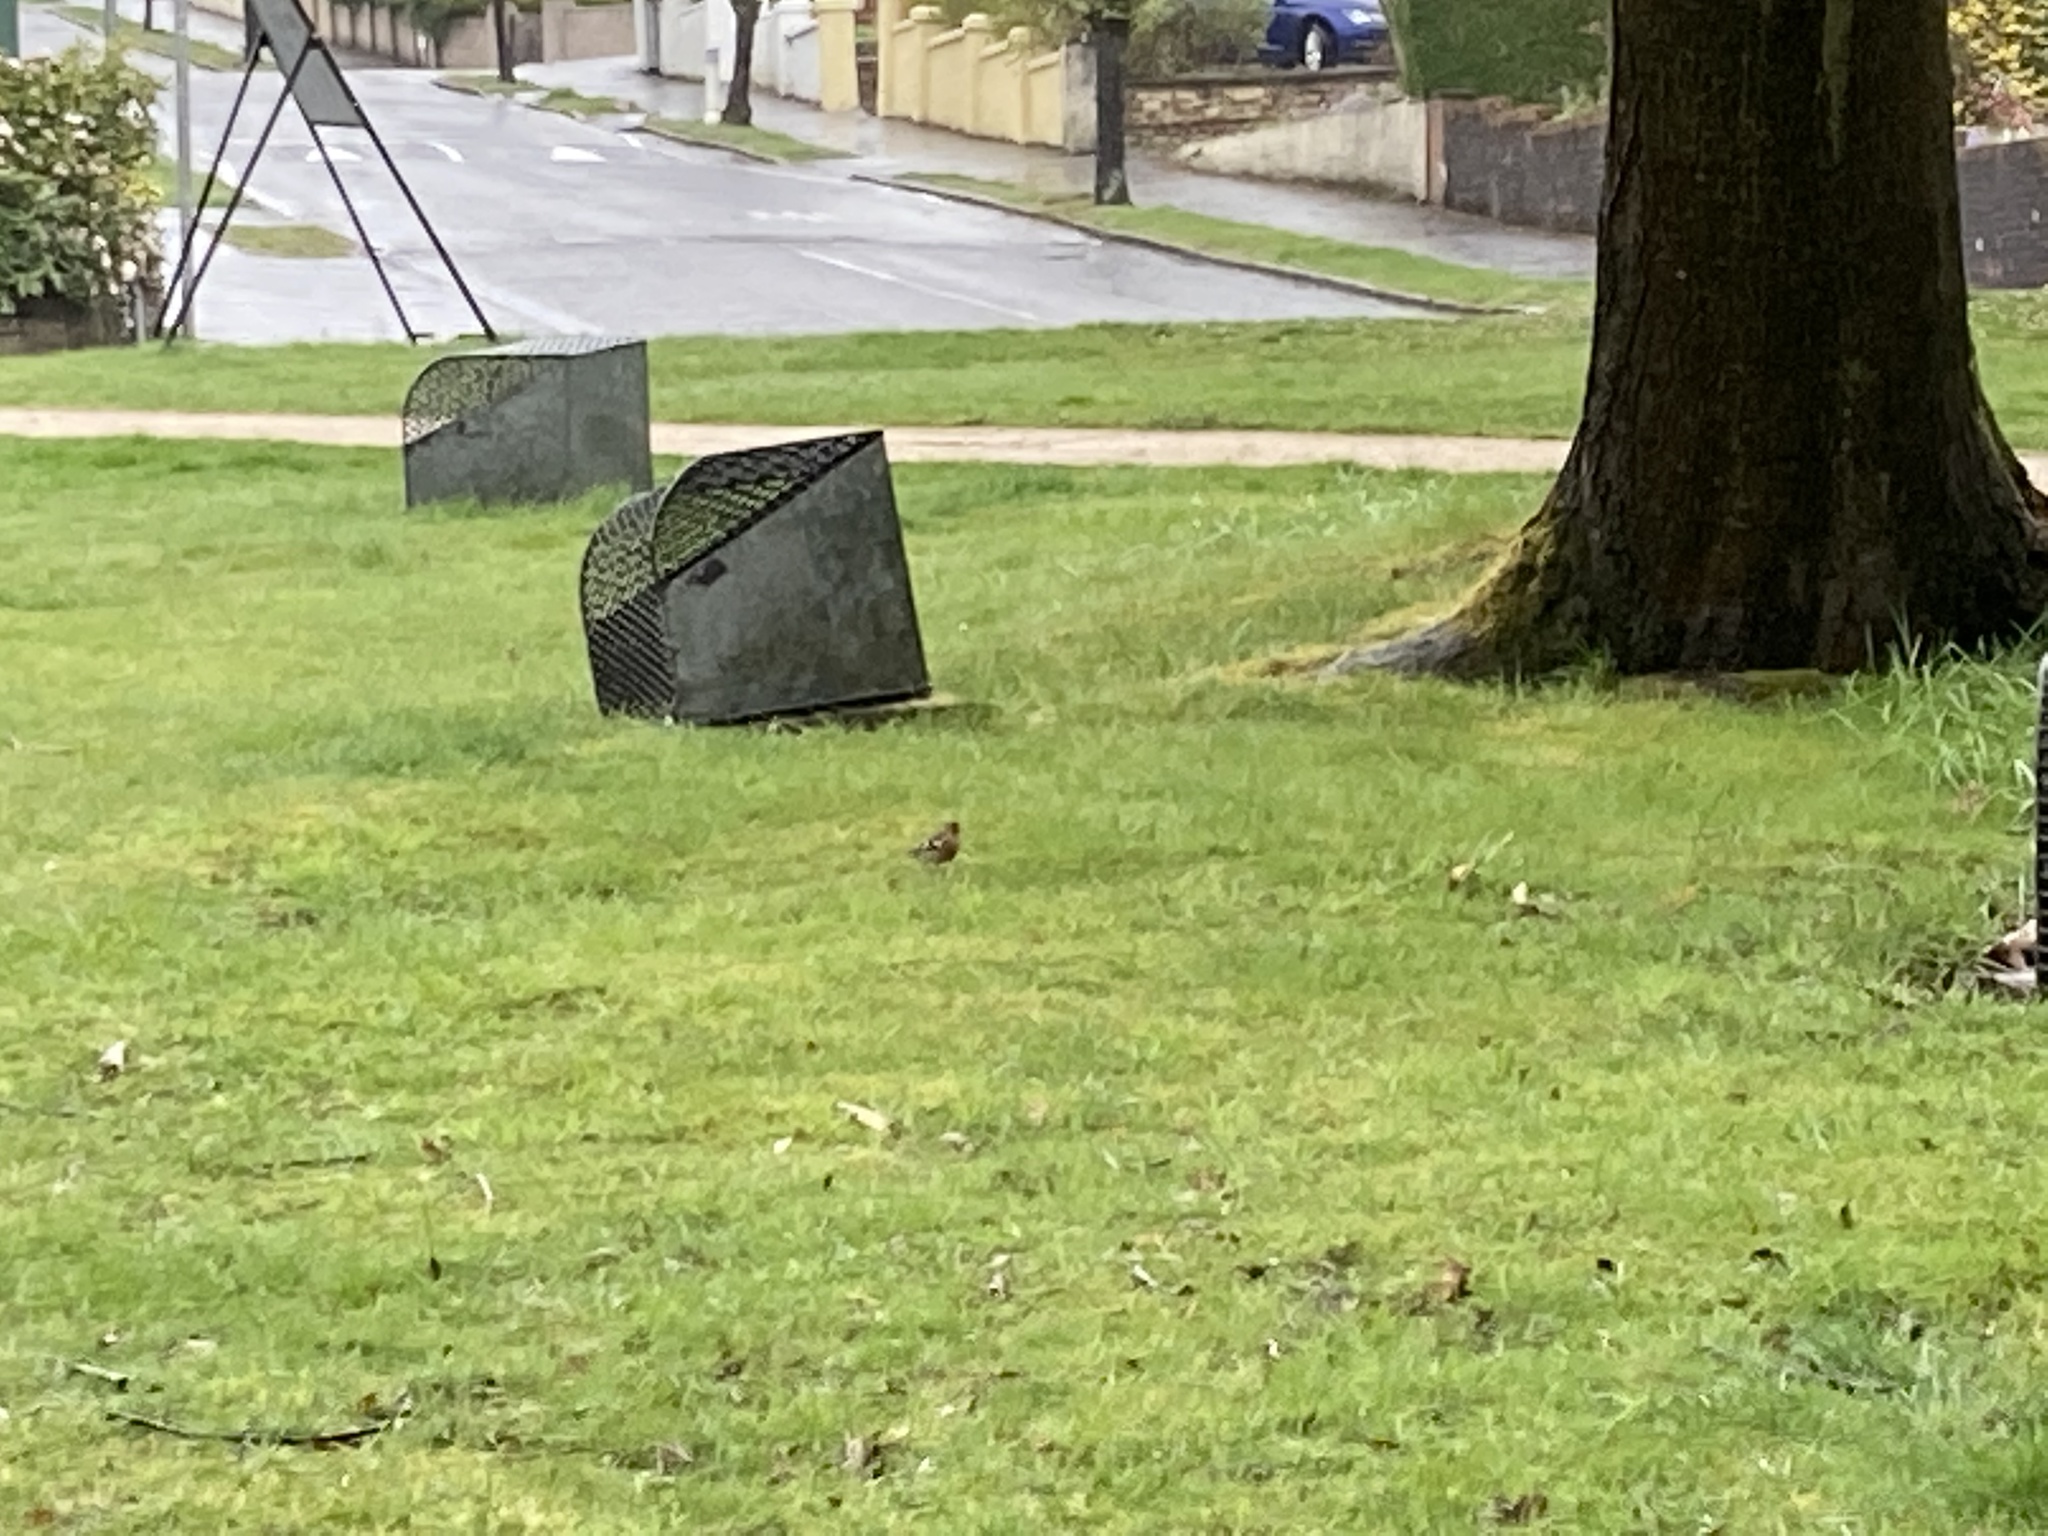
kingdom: Animalia
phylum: Chordata
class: Aves
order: Passeriformes
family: Fringillidae
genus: Fringilla
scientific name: Fringilla coelebs
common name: Common chaffinch
